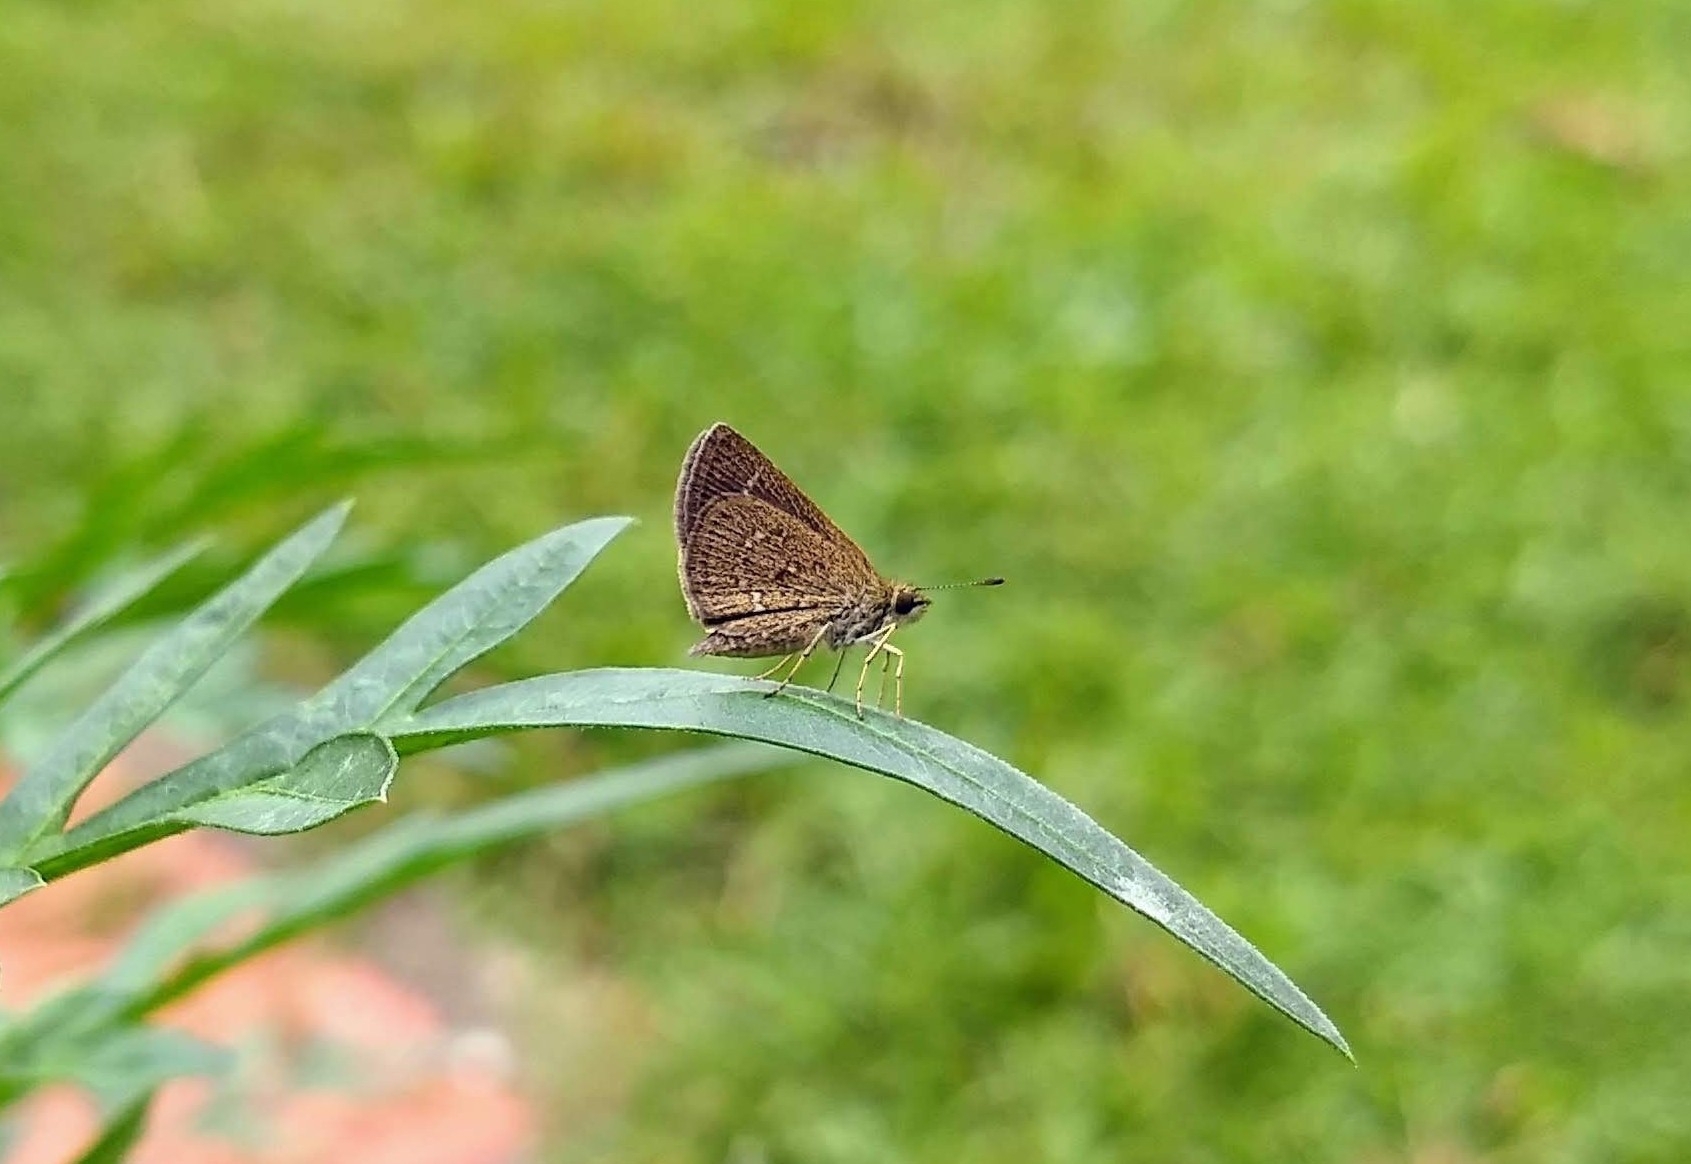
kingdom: Animalia
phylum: Arthropoda
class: Insecta
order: Lepidoptera
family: Hesperiidae
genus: Aeromachus
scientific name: Aeromachus pygmaeus
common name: Pygmy scrub hopper
